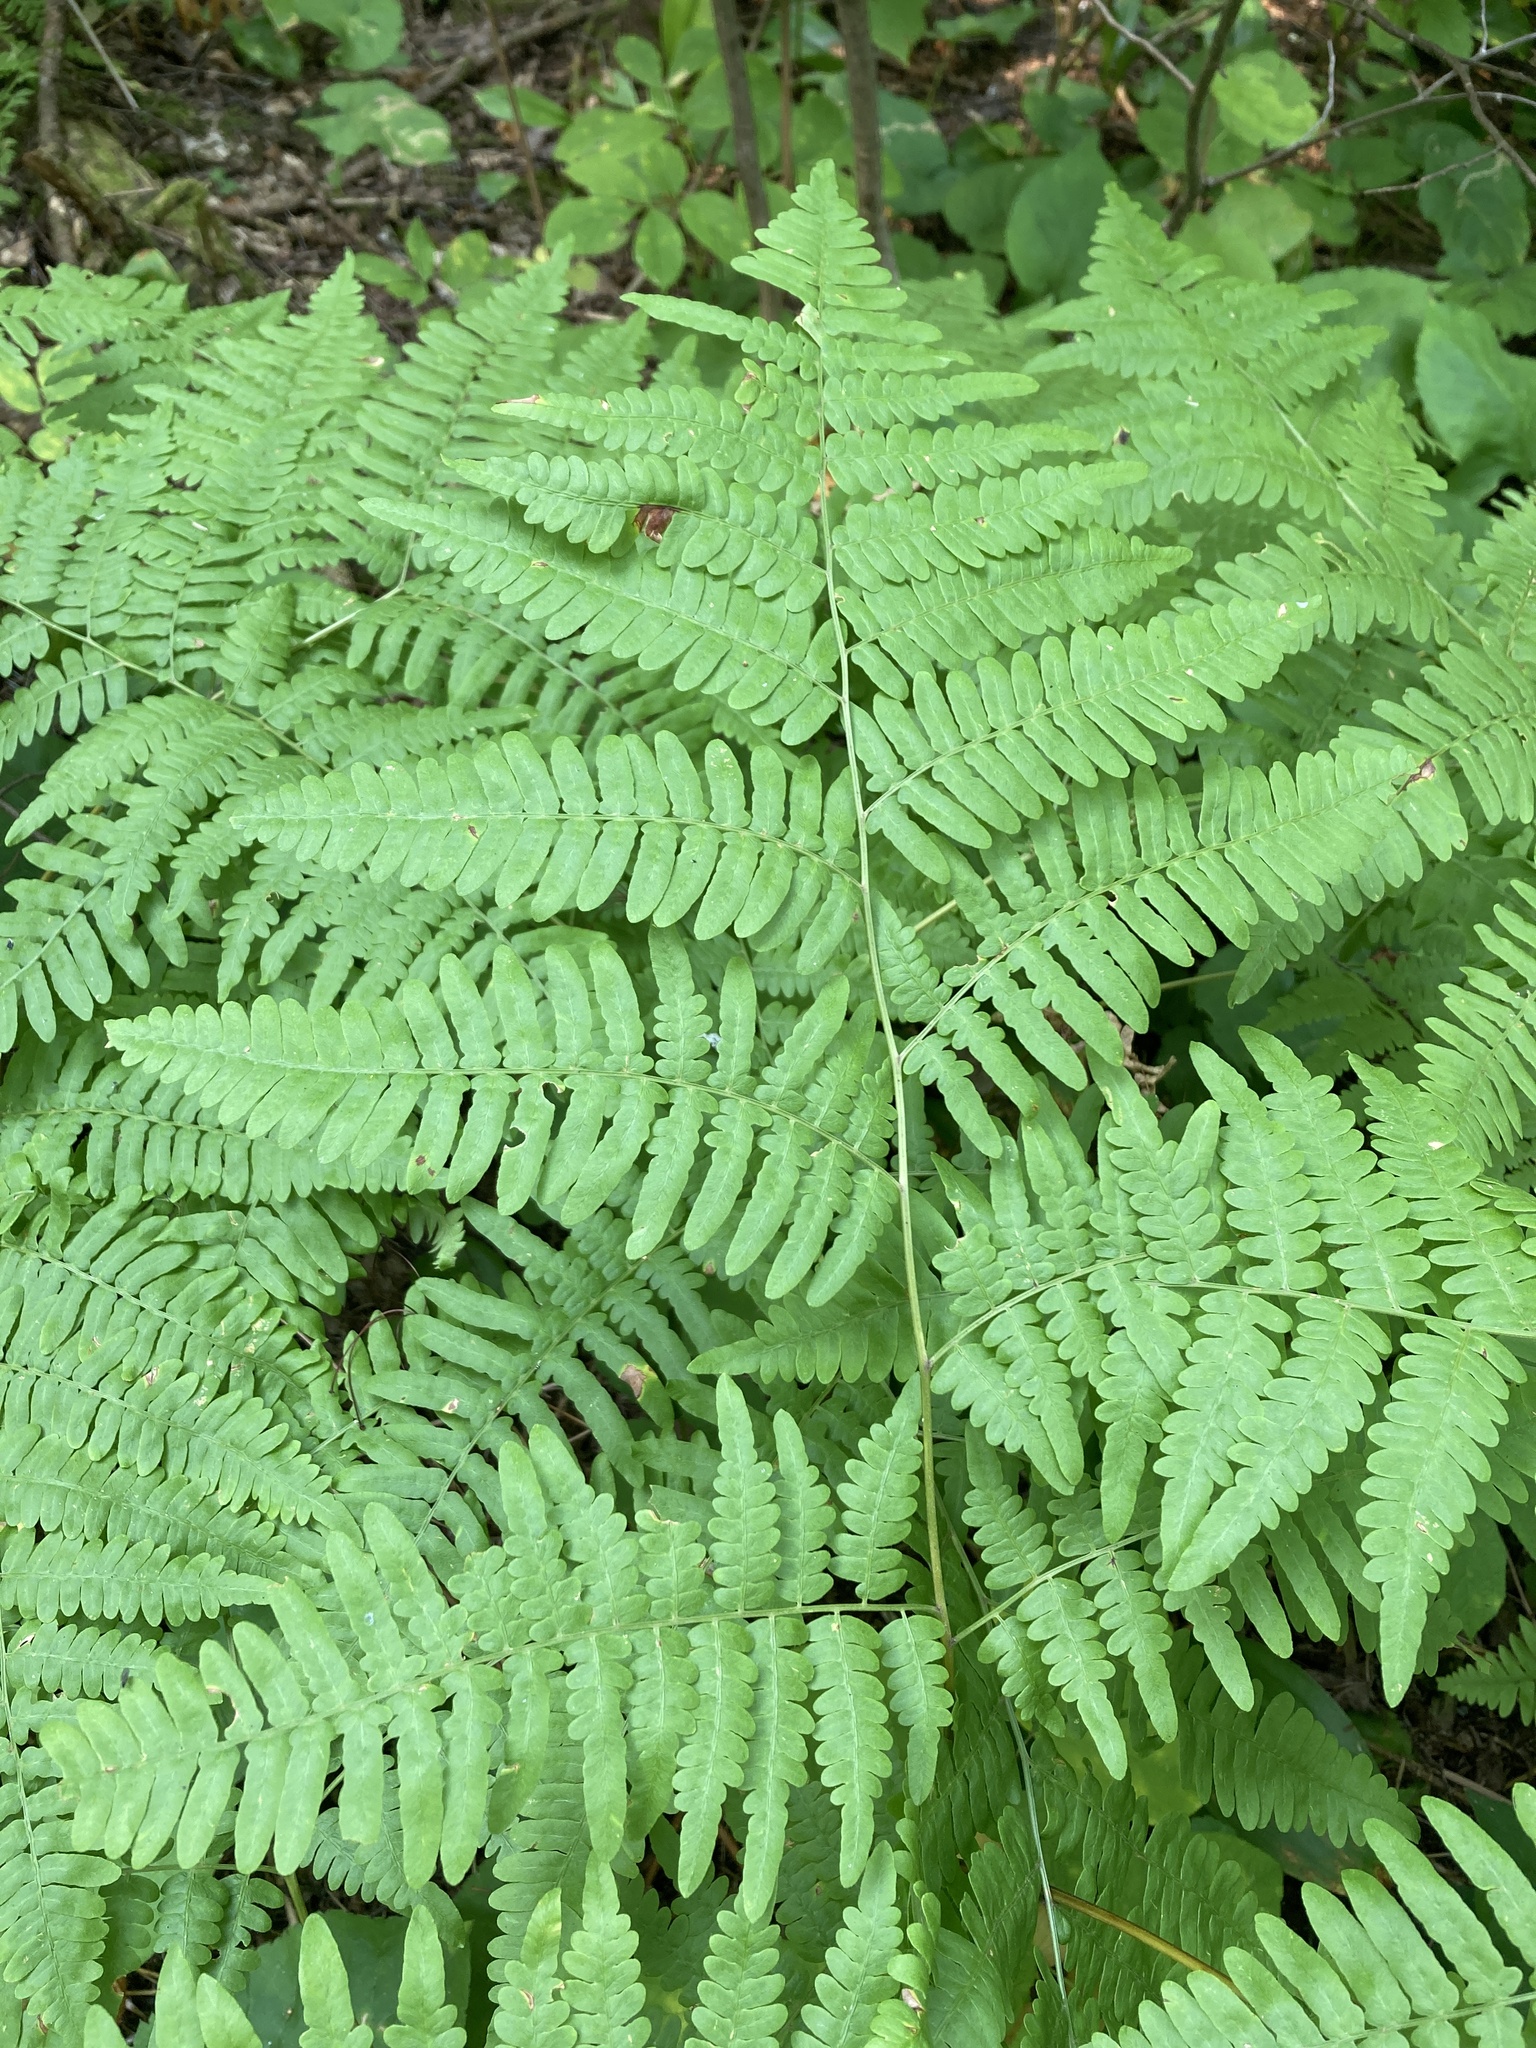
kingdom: Plantae
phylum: Tracheophyta
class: Polypodiopsida
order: Polypodiales
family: Dennstaedtiaceae
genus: Pteridium
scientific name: Pteridium aquilinum
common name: Bracken
